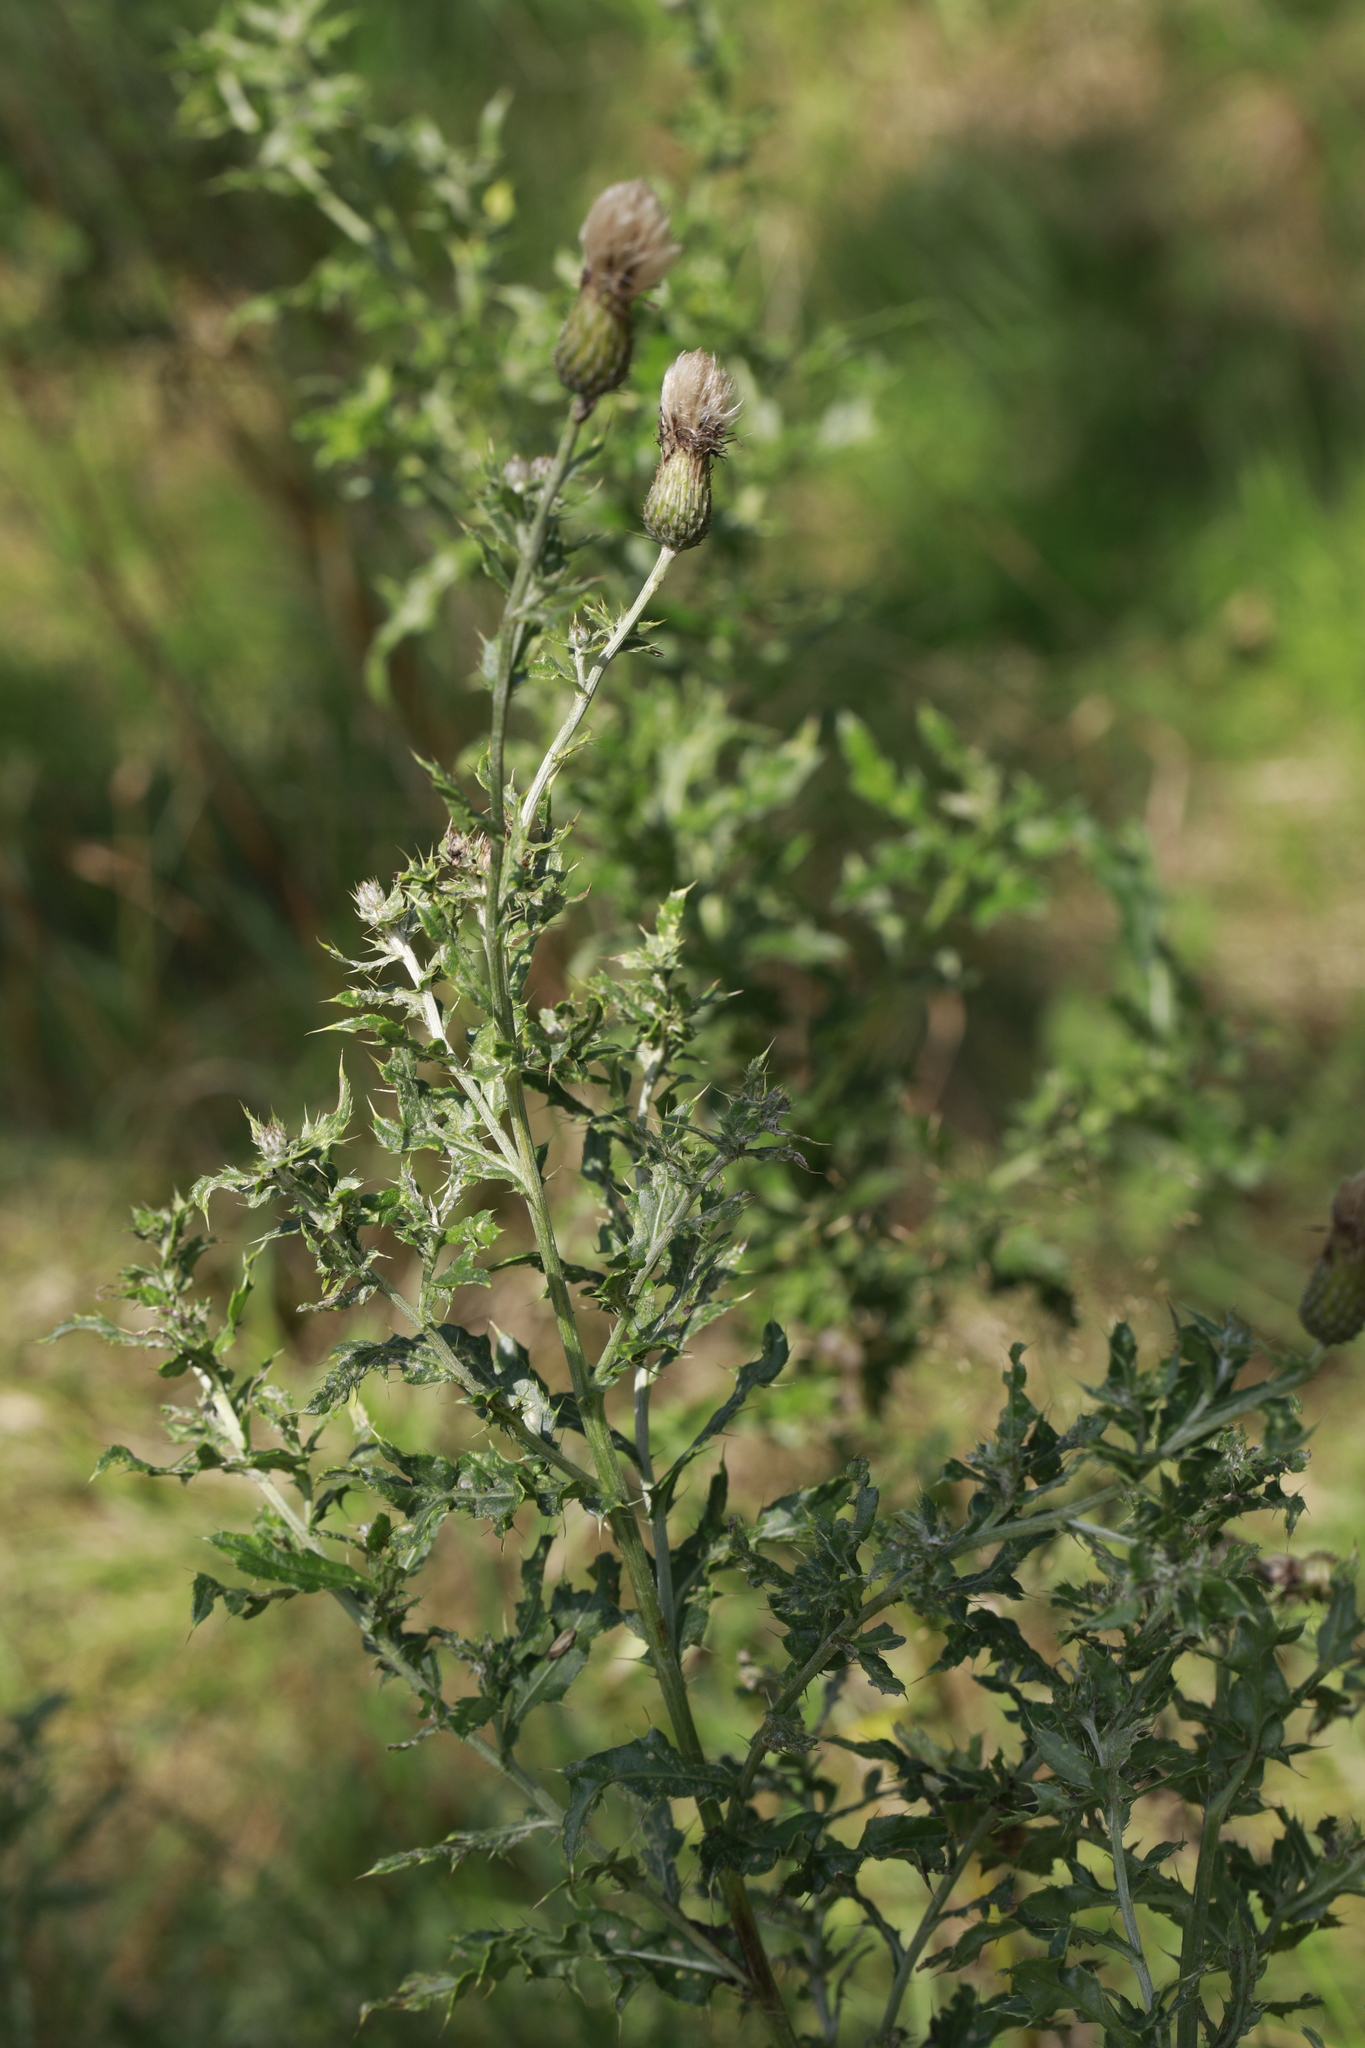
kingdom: Plantae
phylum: Tracheophyta
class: Magnoliopsida
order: Asterales
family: Asteraceae
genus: Cirsium
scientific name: Cirsium arvense
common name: Creeping thistle
